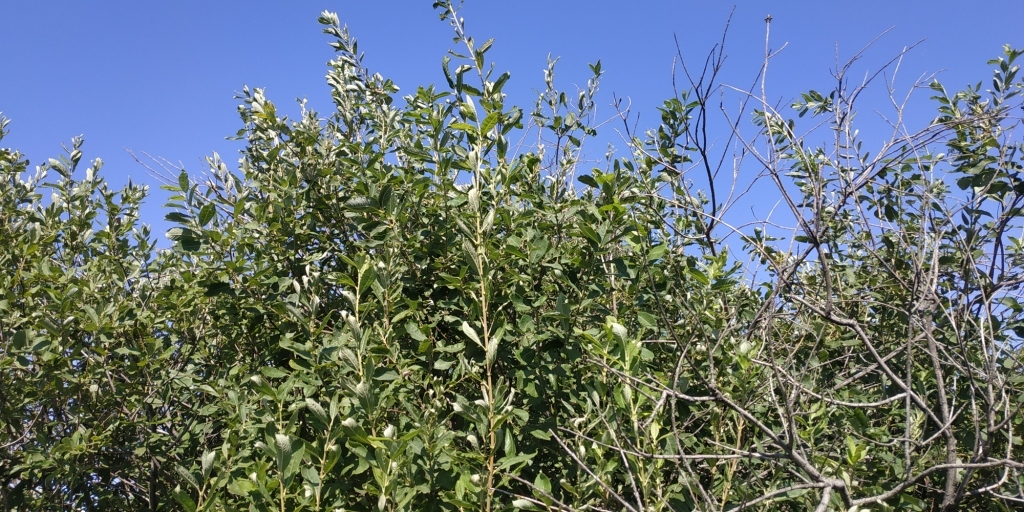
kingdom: Plantae
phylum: Tracheophyta
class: Magnoliopsida
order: Malpighiales
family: Salicaceae
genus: Salix
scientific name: Salix cinerea
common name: Common sallow
